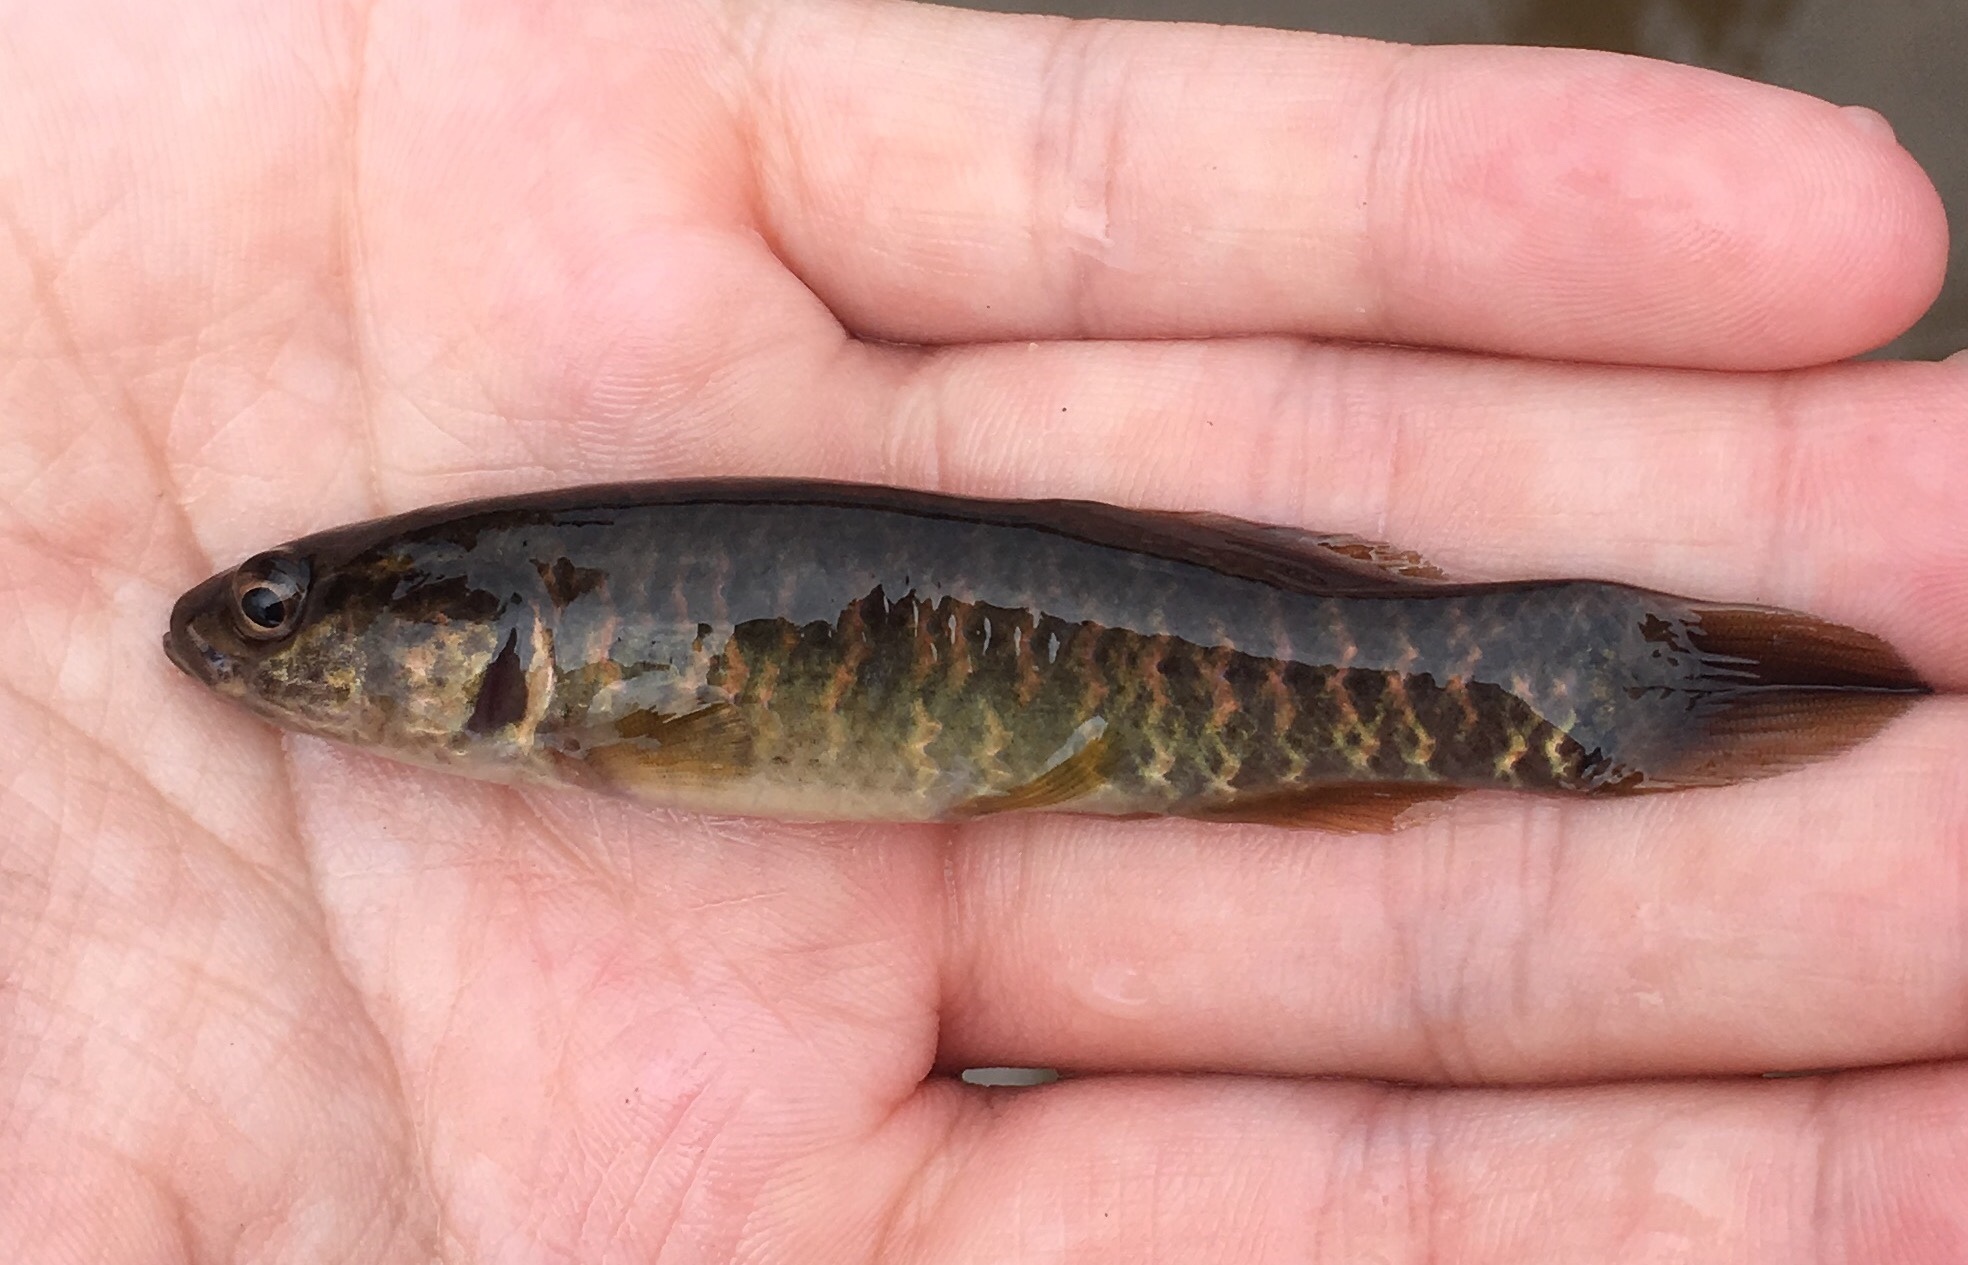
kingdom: Animalia
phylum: Chordata
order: Esociformes
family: Umbridae
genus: Umbra
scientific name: Umbra limi
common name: Central mudminnow
